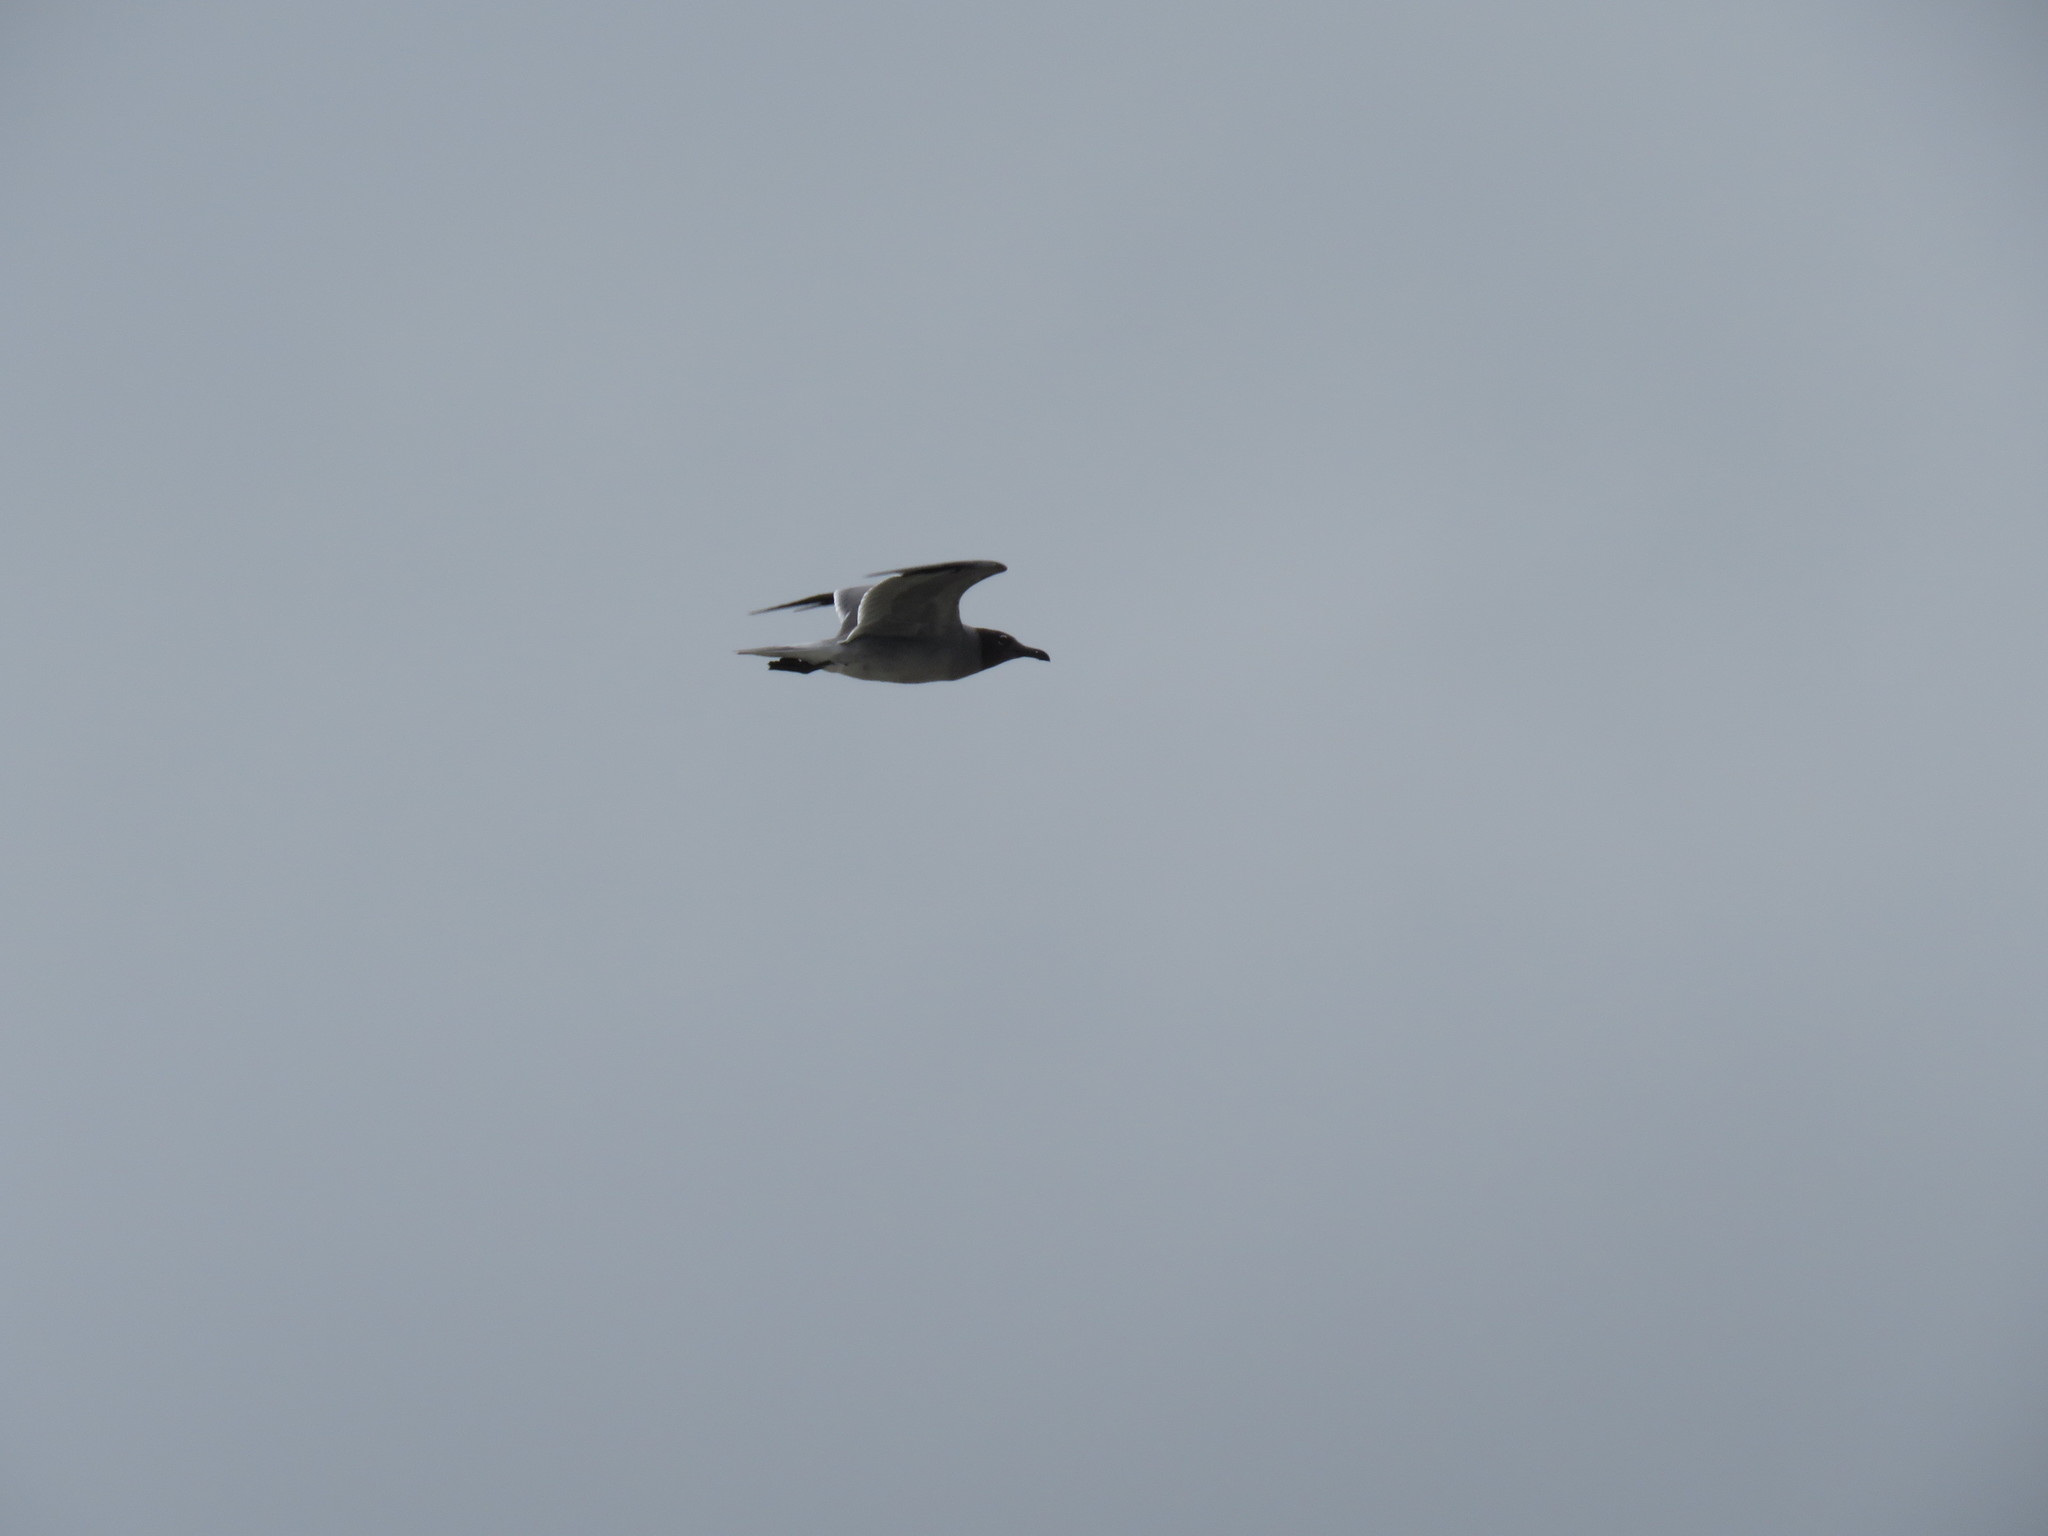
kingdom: Animalia
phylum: Chordata
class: Aves
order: Charadriiformes
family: Laridae
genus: Leucophaeus
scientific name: Leucophaeus fuliginosus
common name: Lava gull
